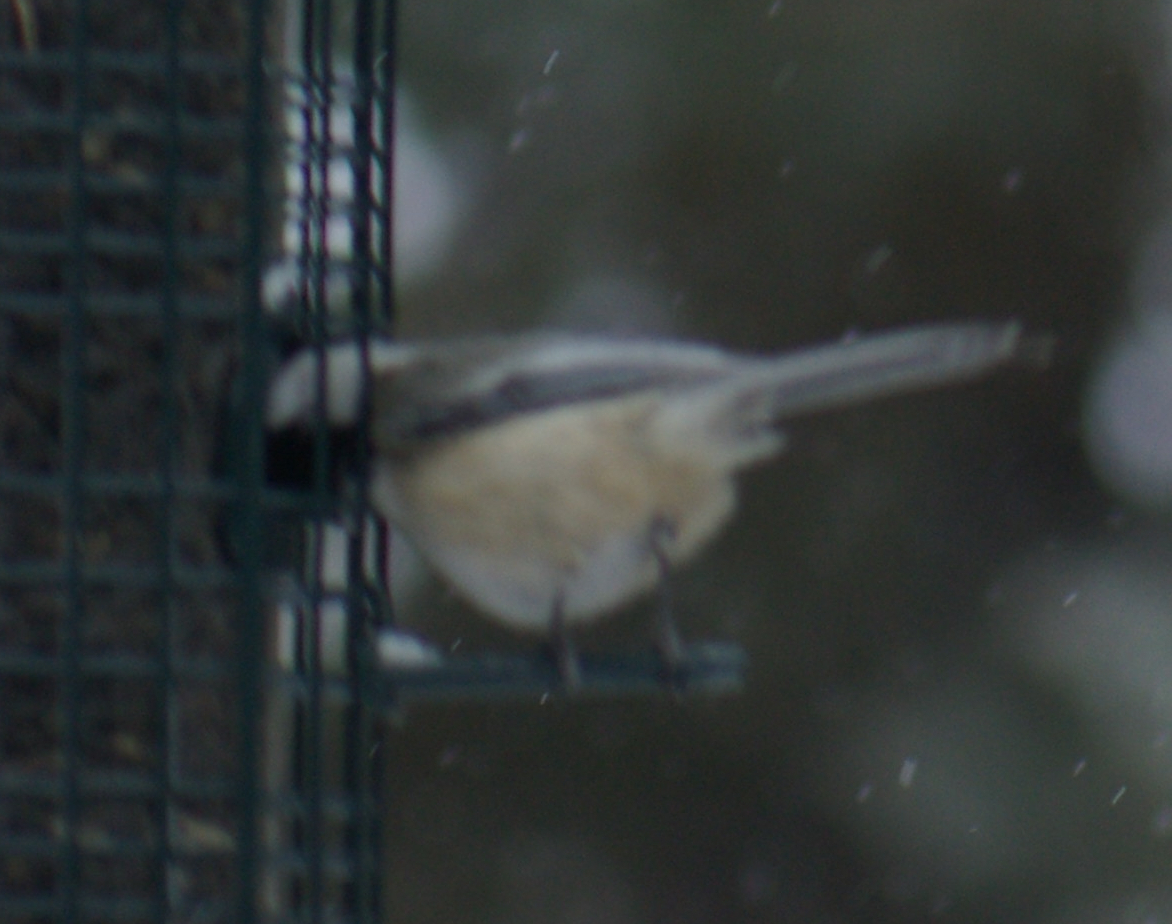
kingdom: Animalia
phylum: Chordata
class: Aves
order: Passeriformes
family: Paridae
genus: Poecile
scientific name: Poecile atricapillus
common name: Black-capped chickadee
